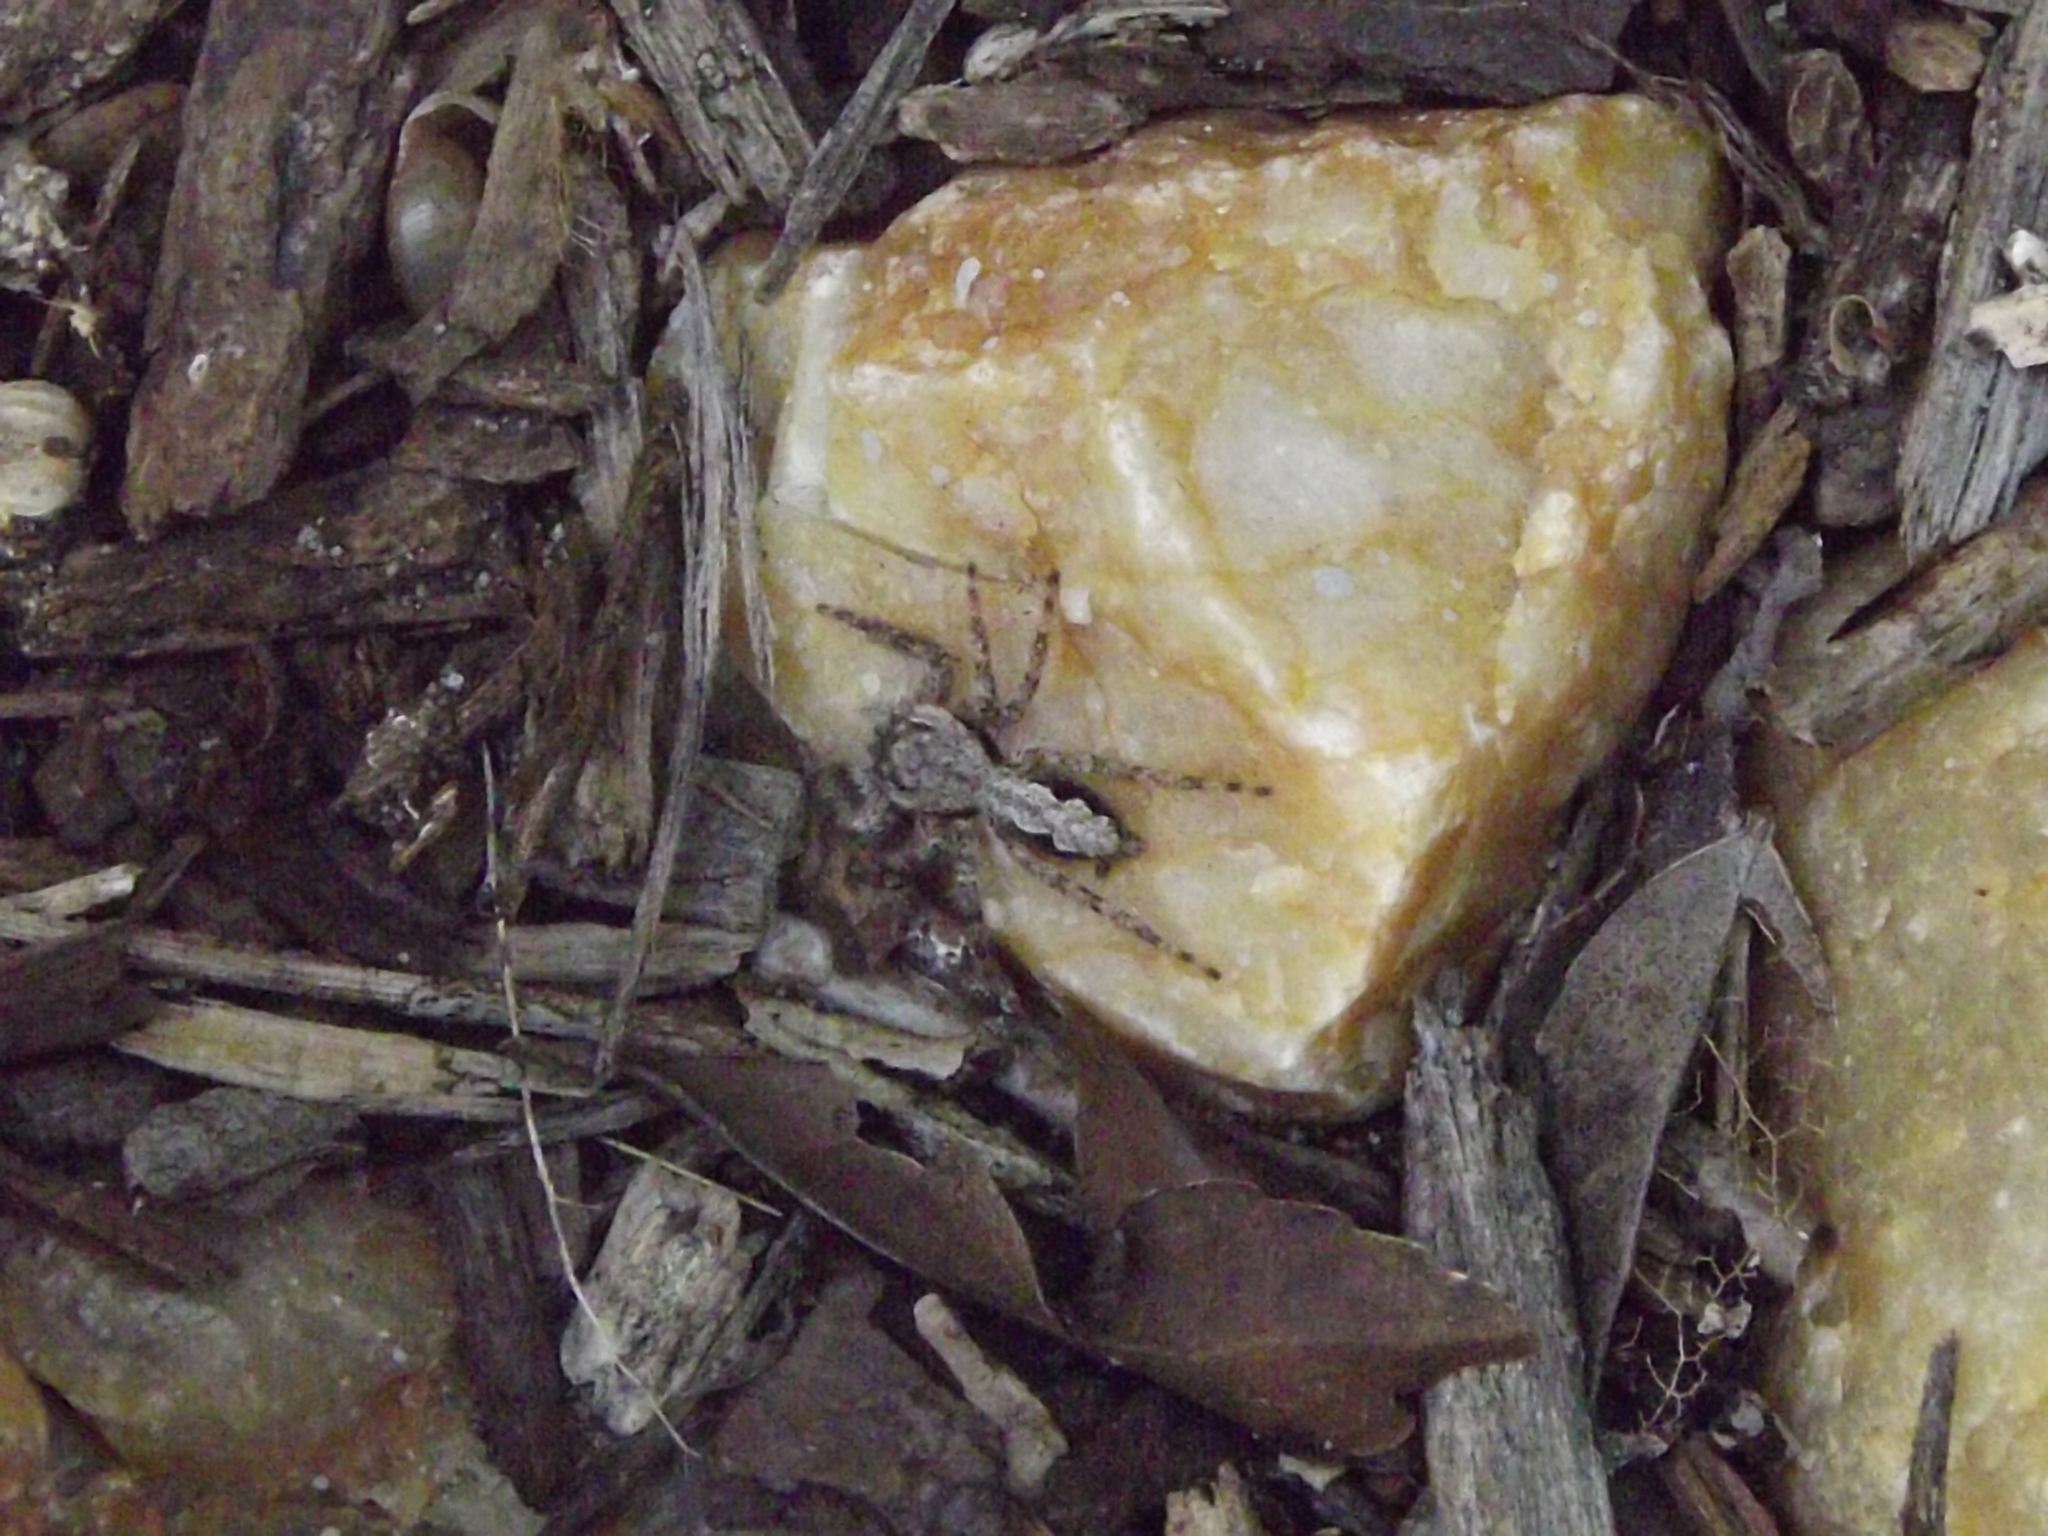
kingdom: Animalia
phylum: Arthropoda
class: Arachnida
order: Araneae
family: Salticidae
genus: Platycryptus
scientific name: Platycryptus undatus
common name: Tan jumping spider
